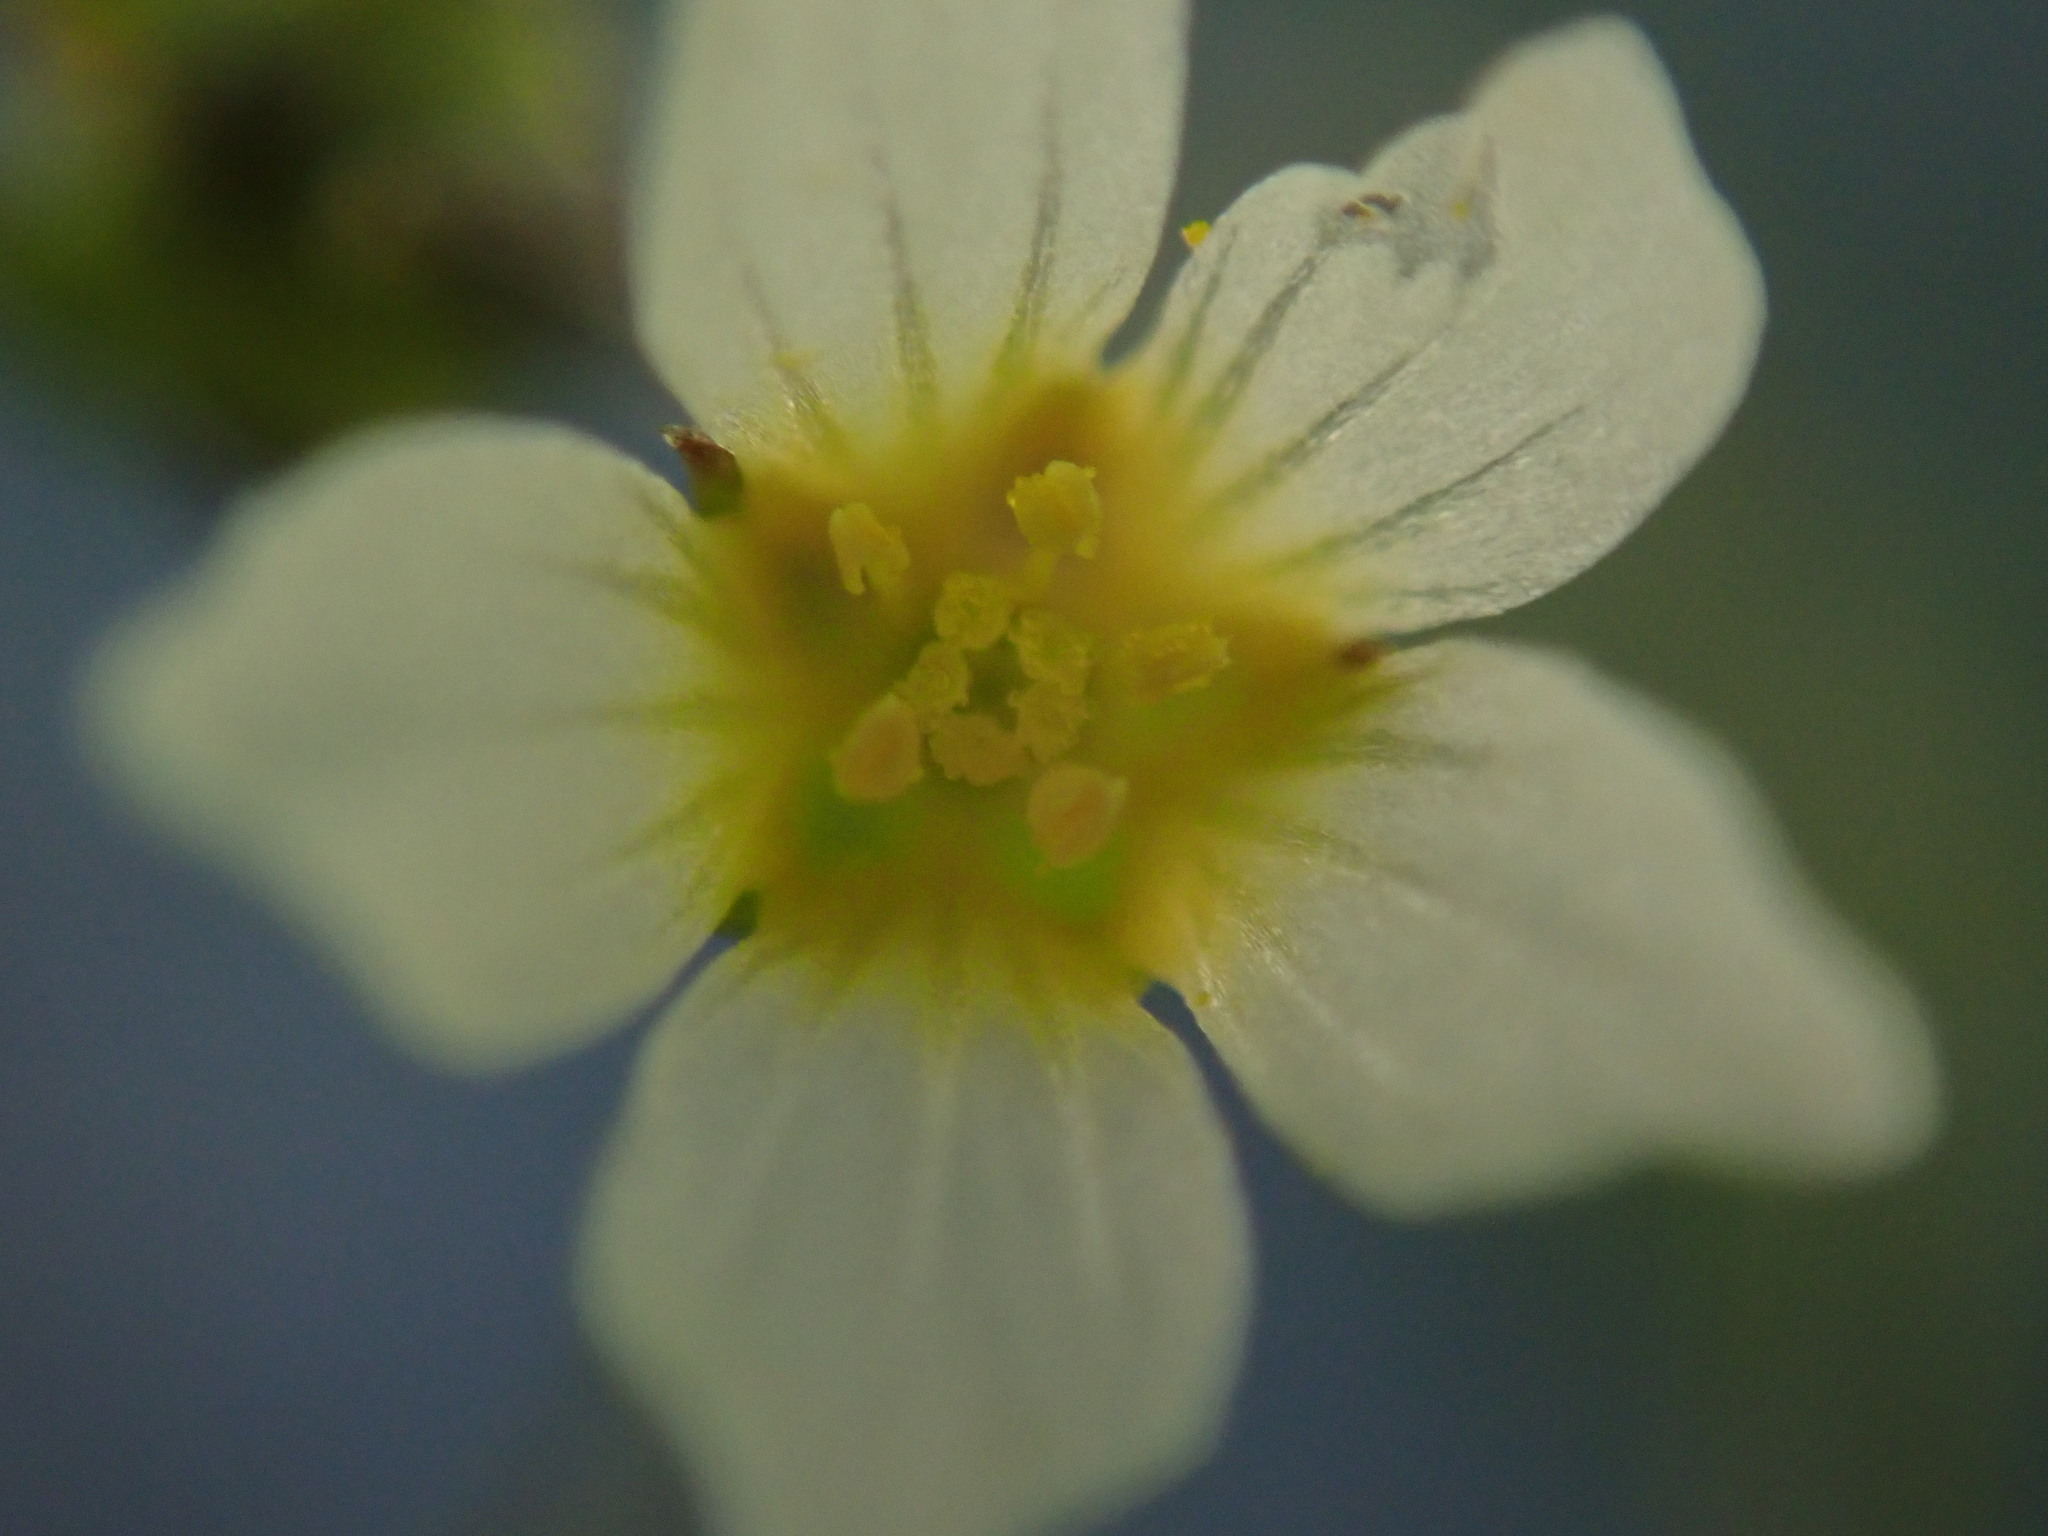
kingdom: Plantae
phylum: Tracheophyta
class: Magnoliopsida
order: Malpighiales
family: Linaceae
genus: Linum
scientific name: Linum catharticum
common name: Fairy flax
